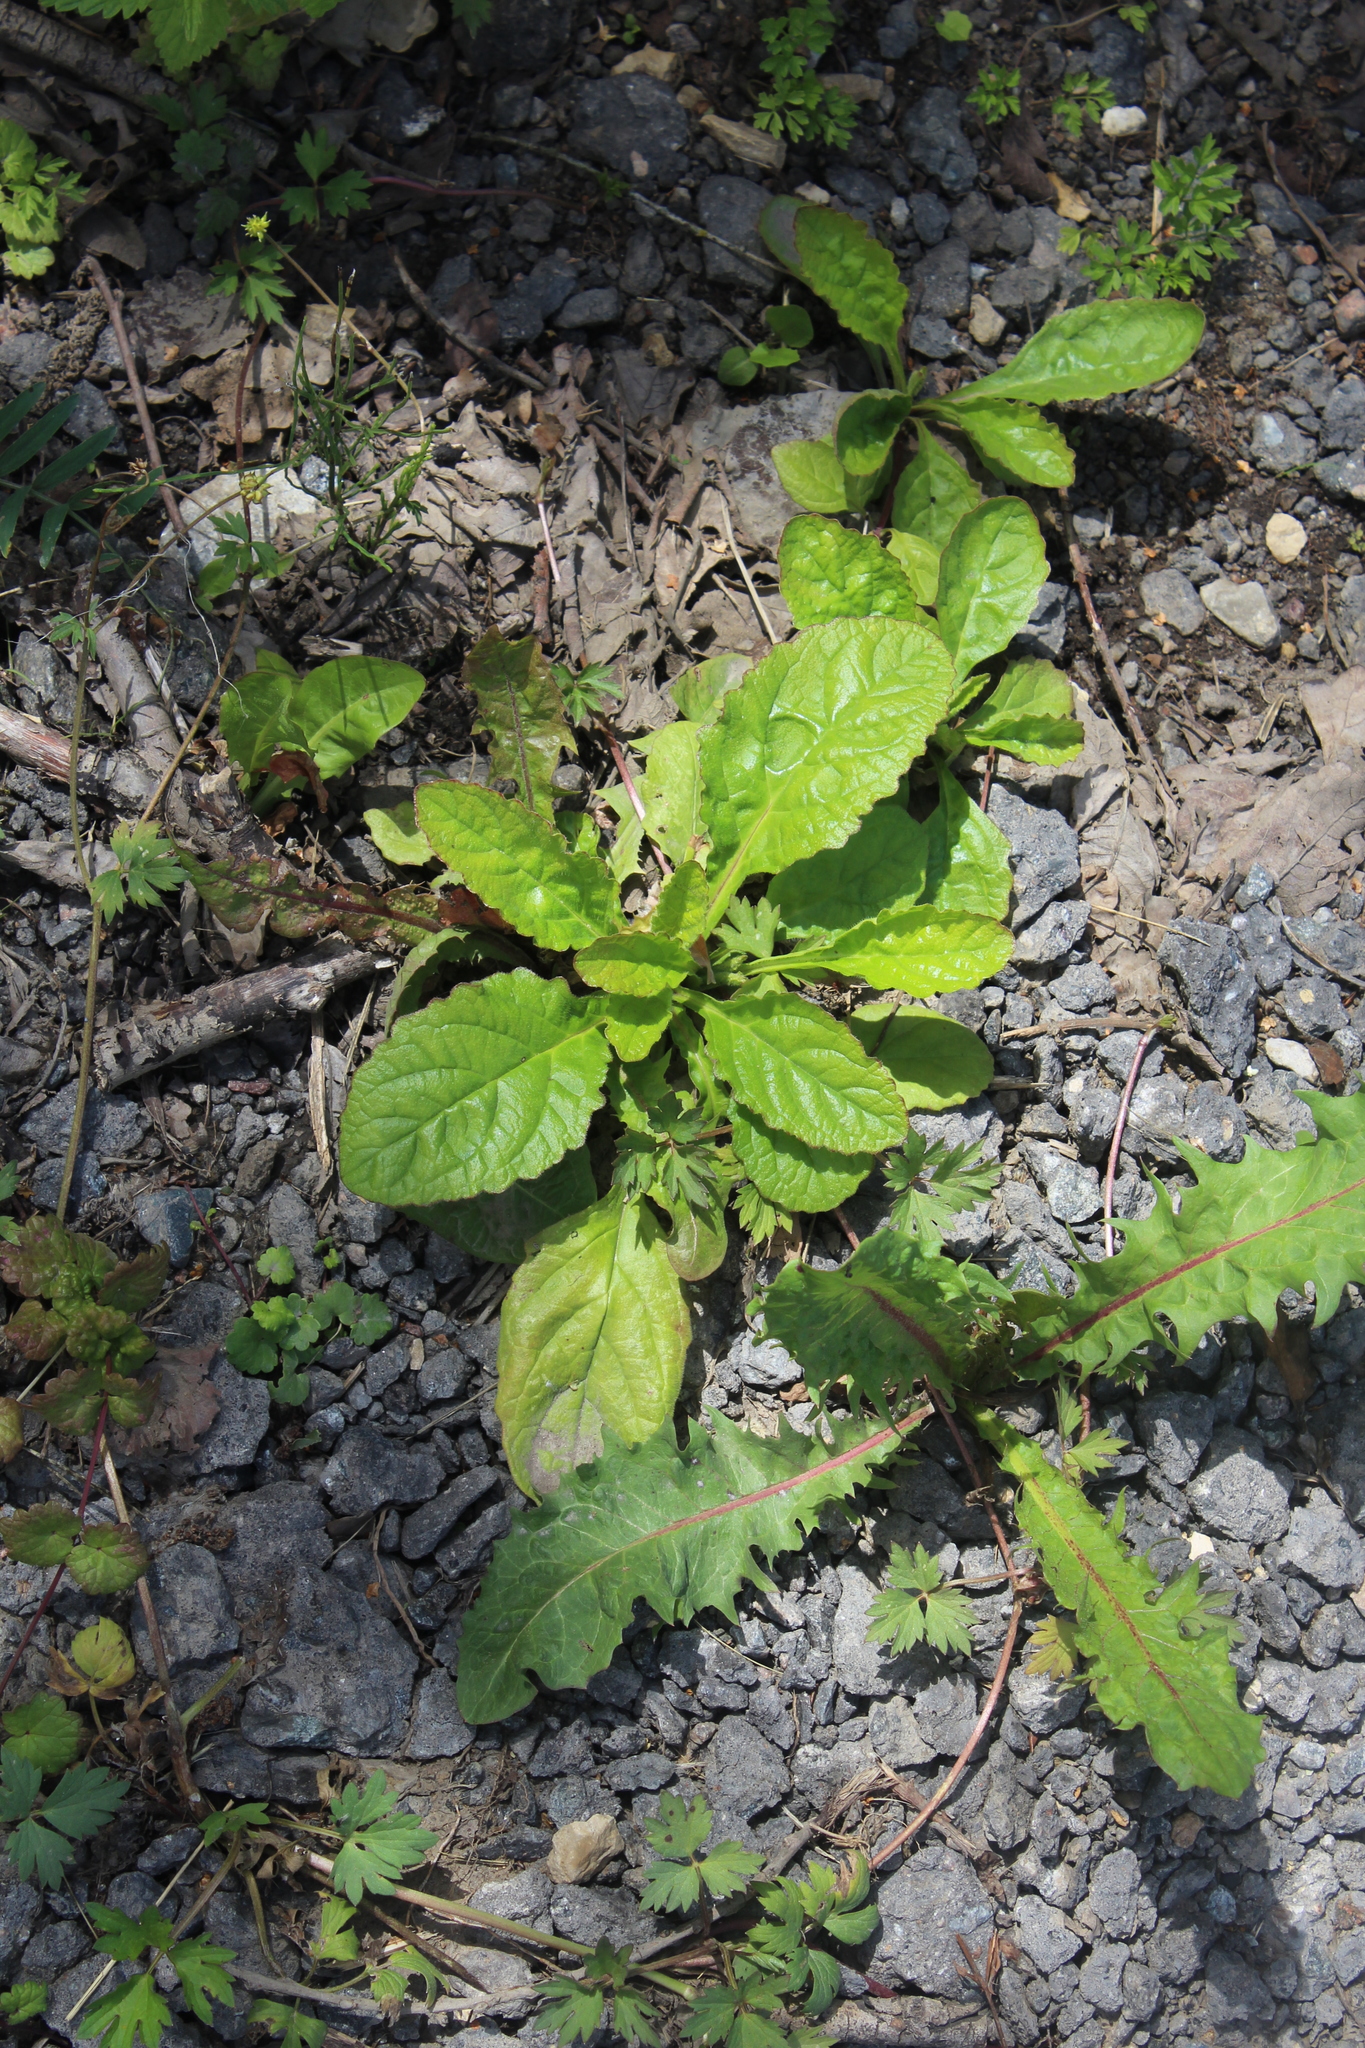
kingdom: Plantae
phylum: Tracheophyta
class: Magnoliopsida
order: Lamiales
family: Lamiaceae
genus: Ajuga
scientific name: Ajuga reptans
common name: Bugle
